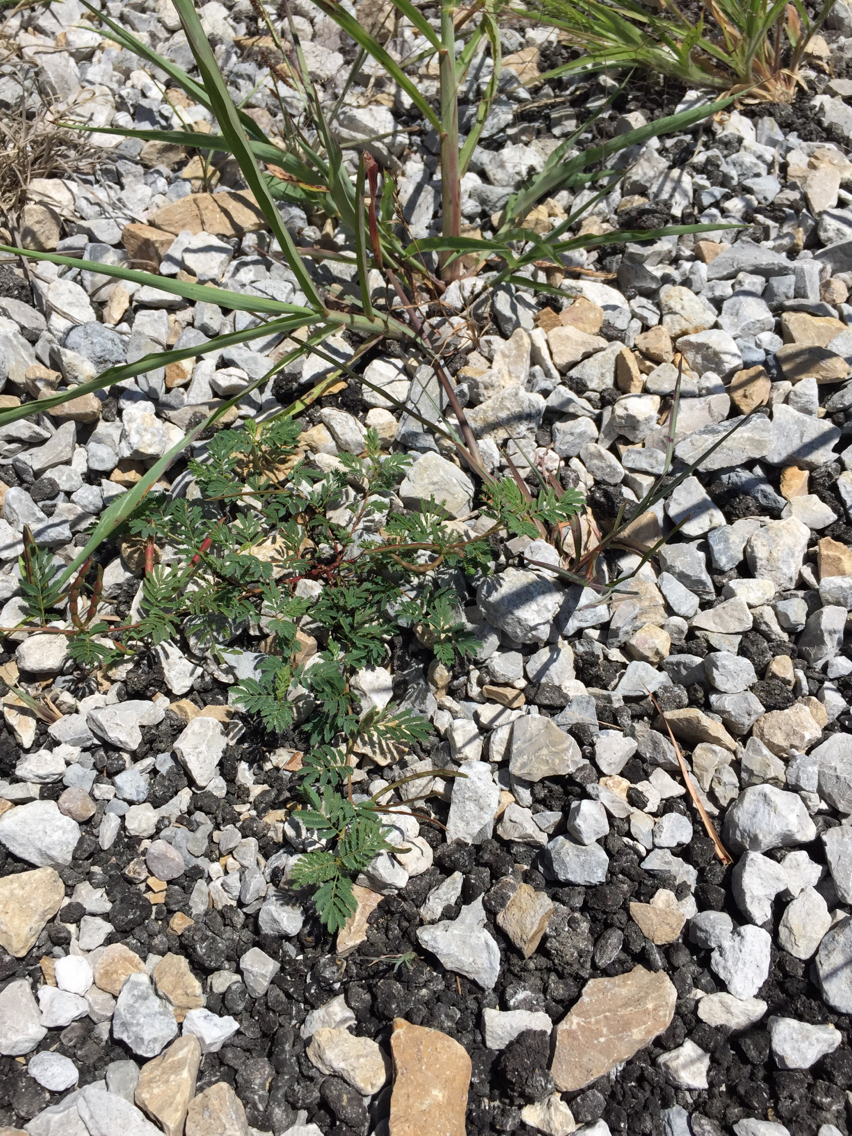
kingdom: Plantae
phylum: Tracheophyta
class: Magnoliopsida
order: Fabales
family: Fabaceae
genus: Desmanthus
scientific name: Desmanthus leptolobus
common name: Prairie-mimosa
